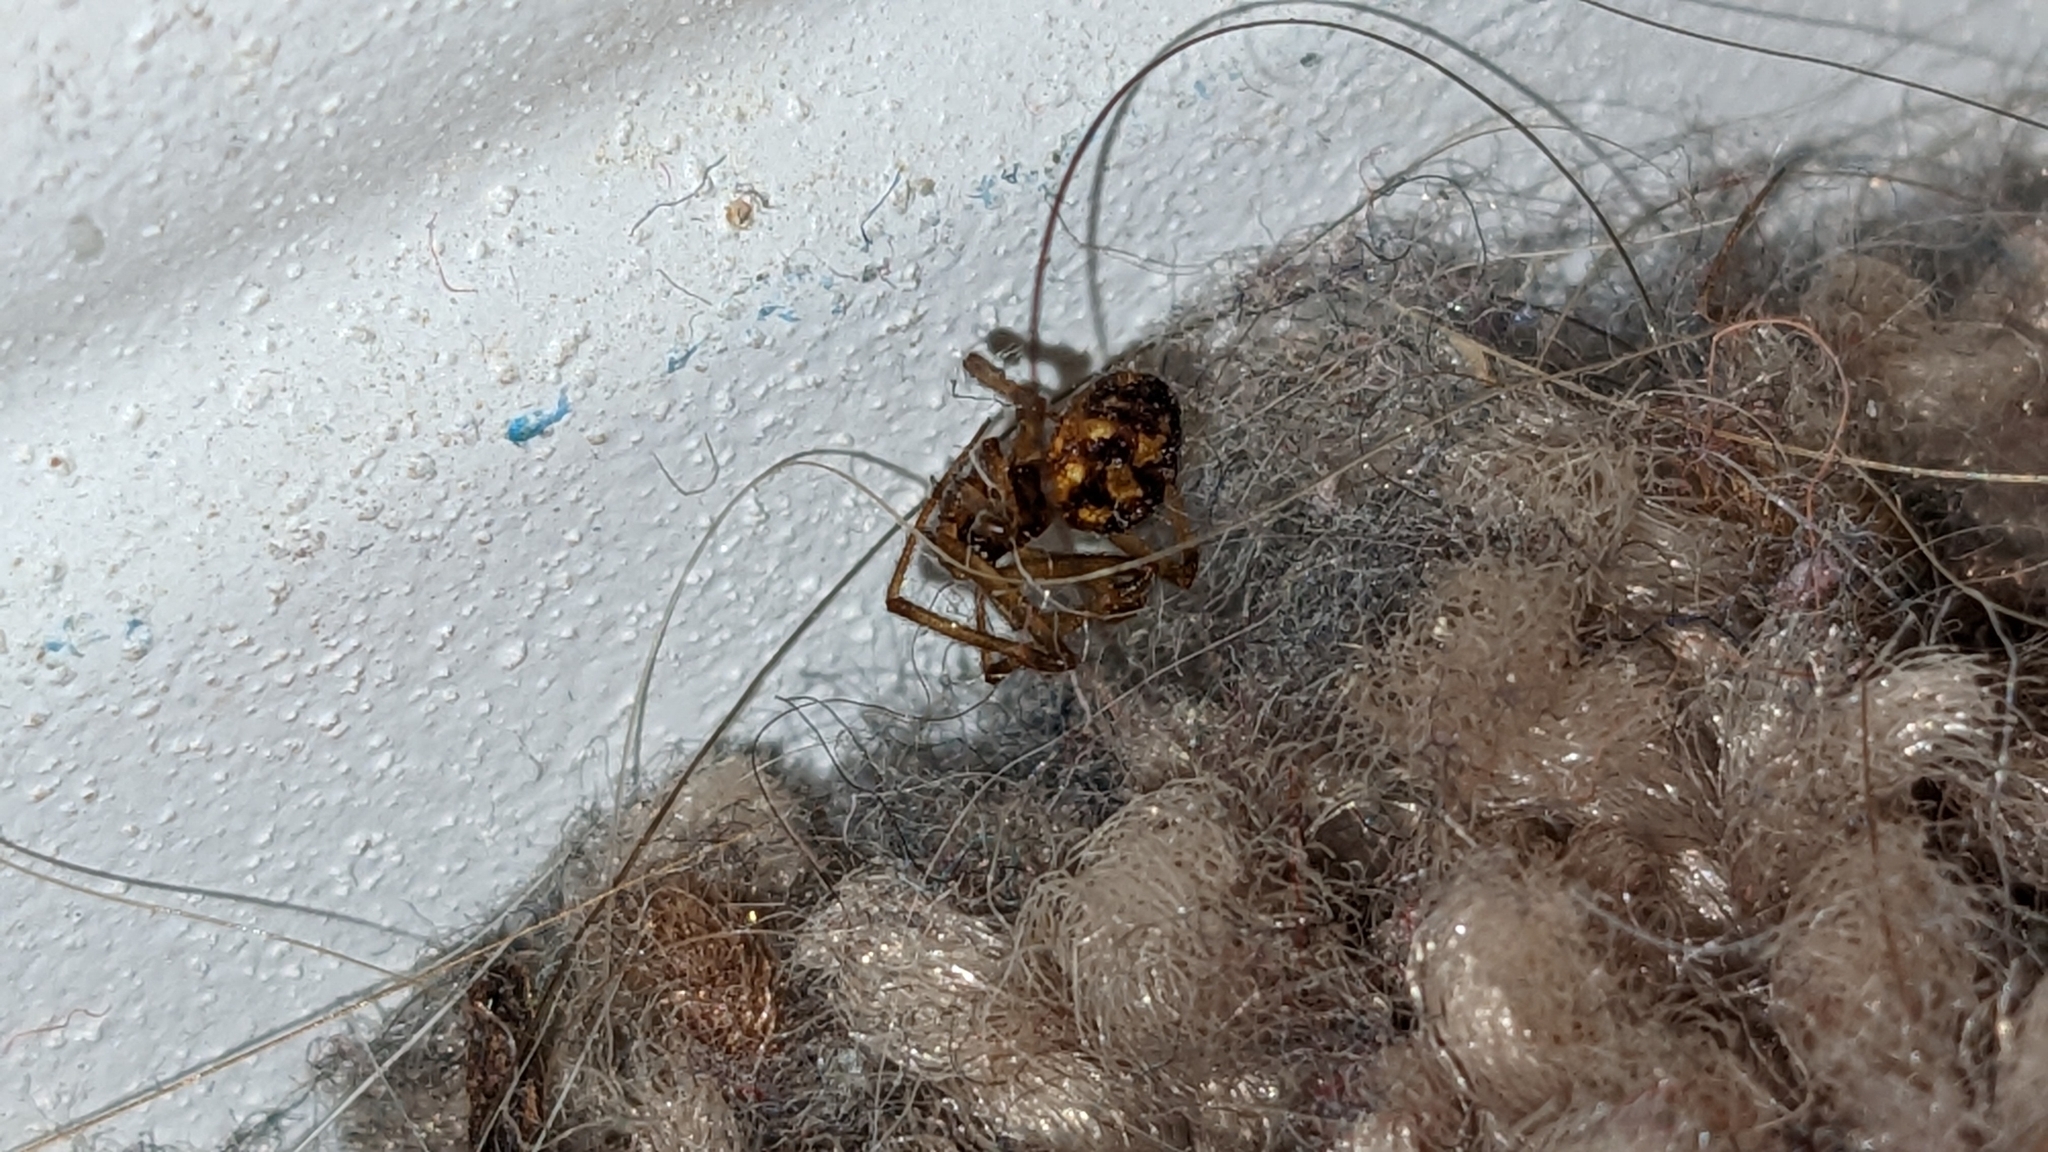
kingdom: Animalia
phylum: Arthropoda
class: Arachnida
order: Araneae
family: Theridiidae
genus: Steatoda
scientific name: Steatoda triangulosa
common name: Triangulate bud spider
